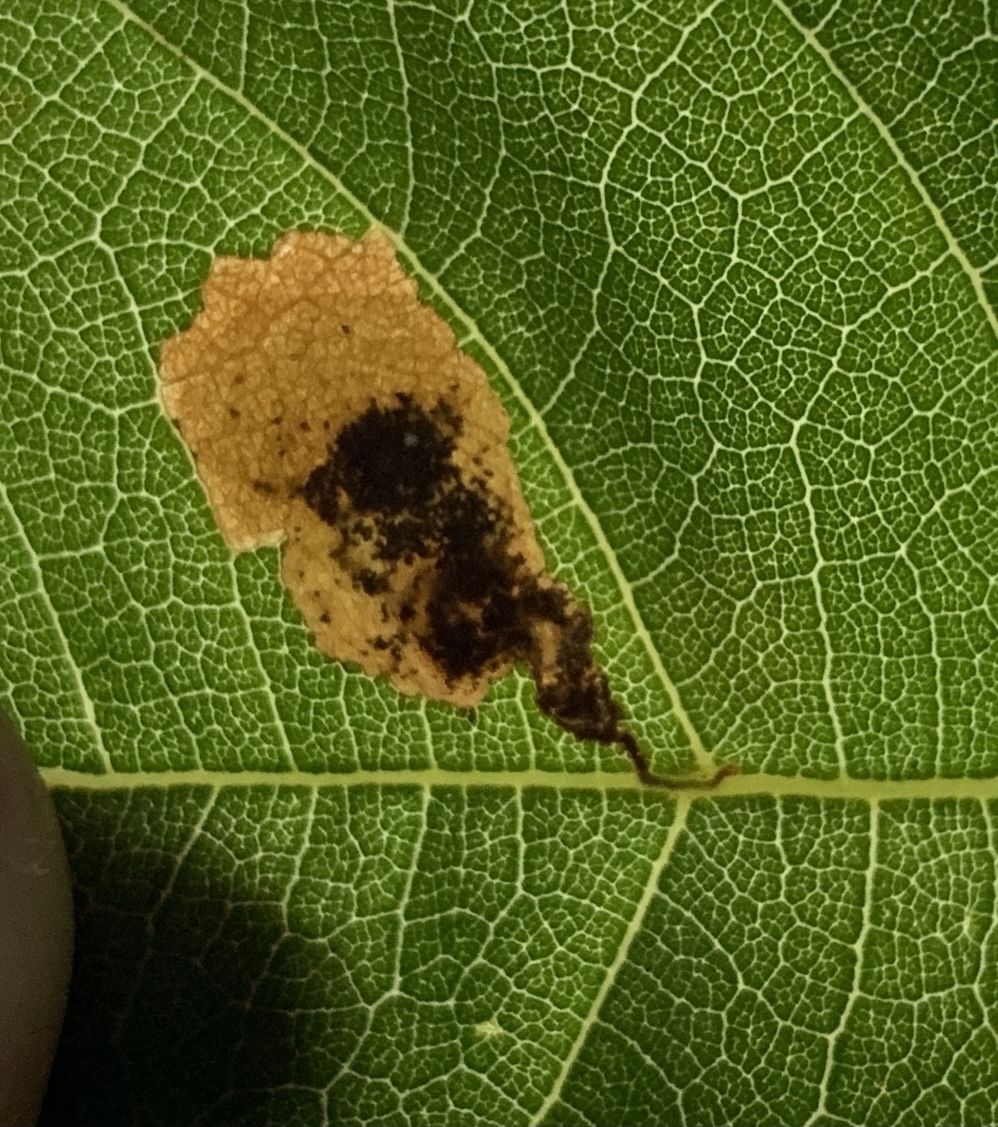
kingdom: Animalia
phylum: Arthropoda
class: Insecta
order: Lepidoptera
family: Momphidae
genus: Mompha
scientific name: Mompha solomoni
